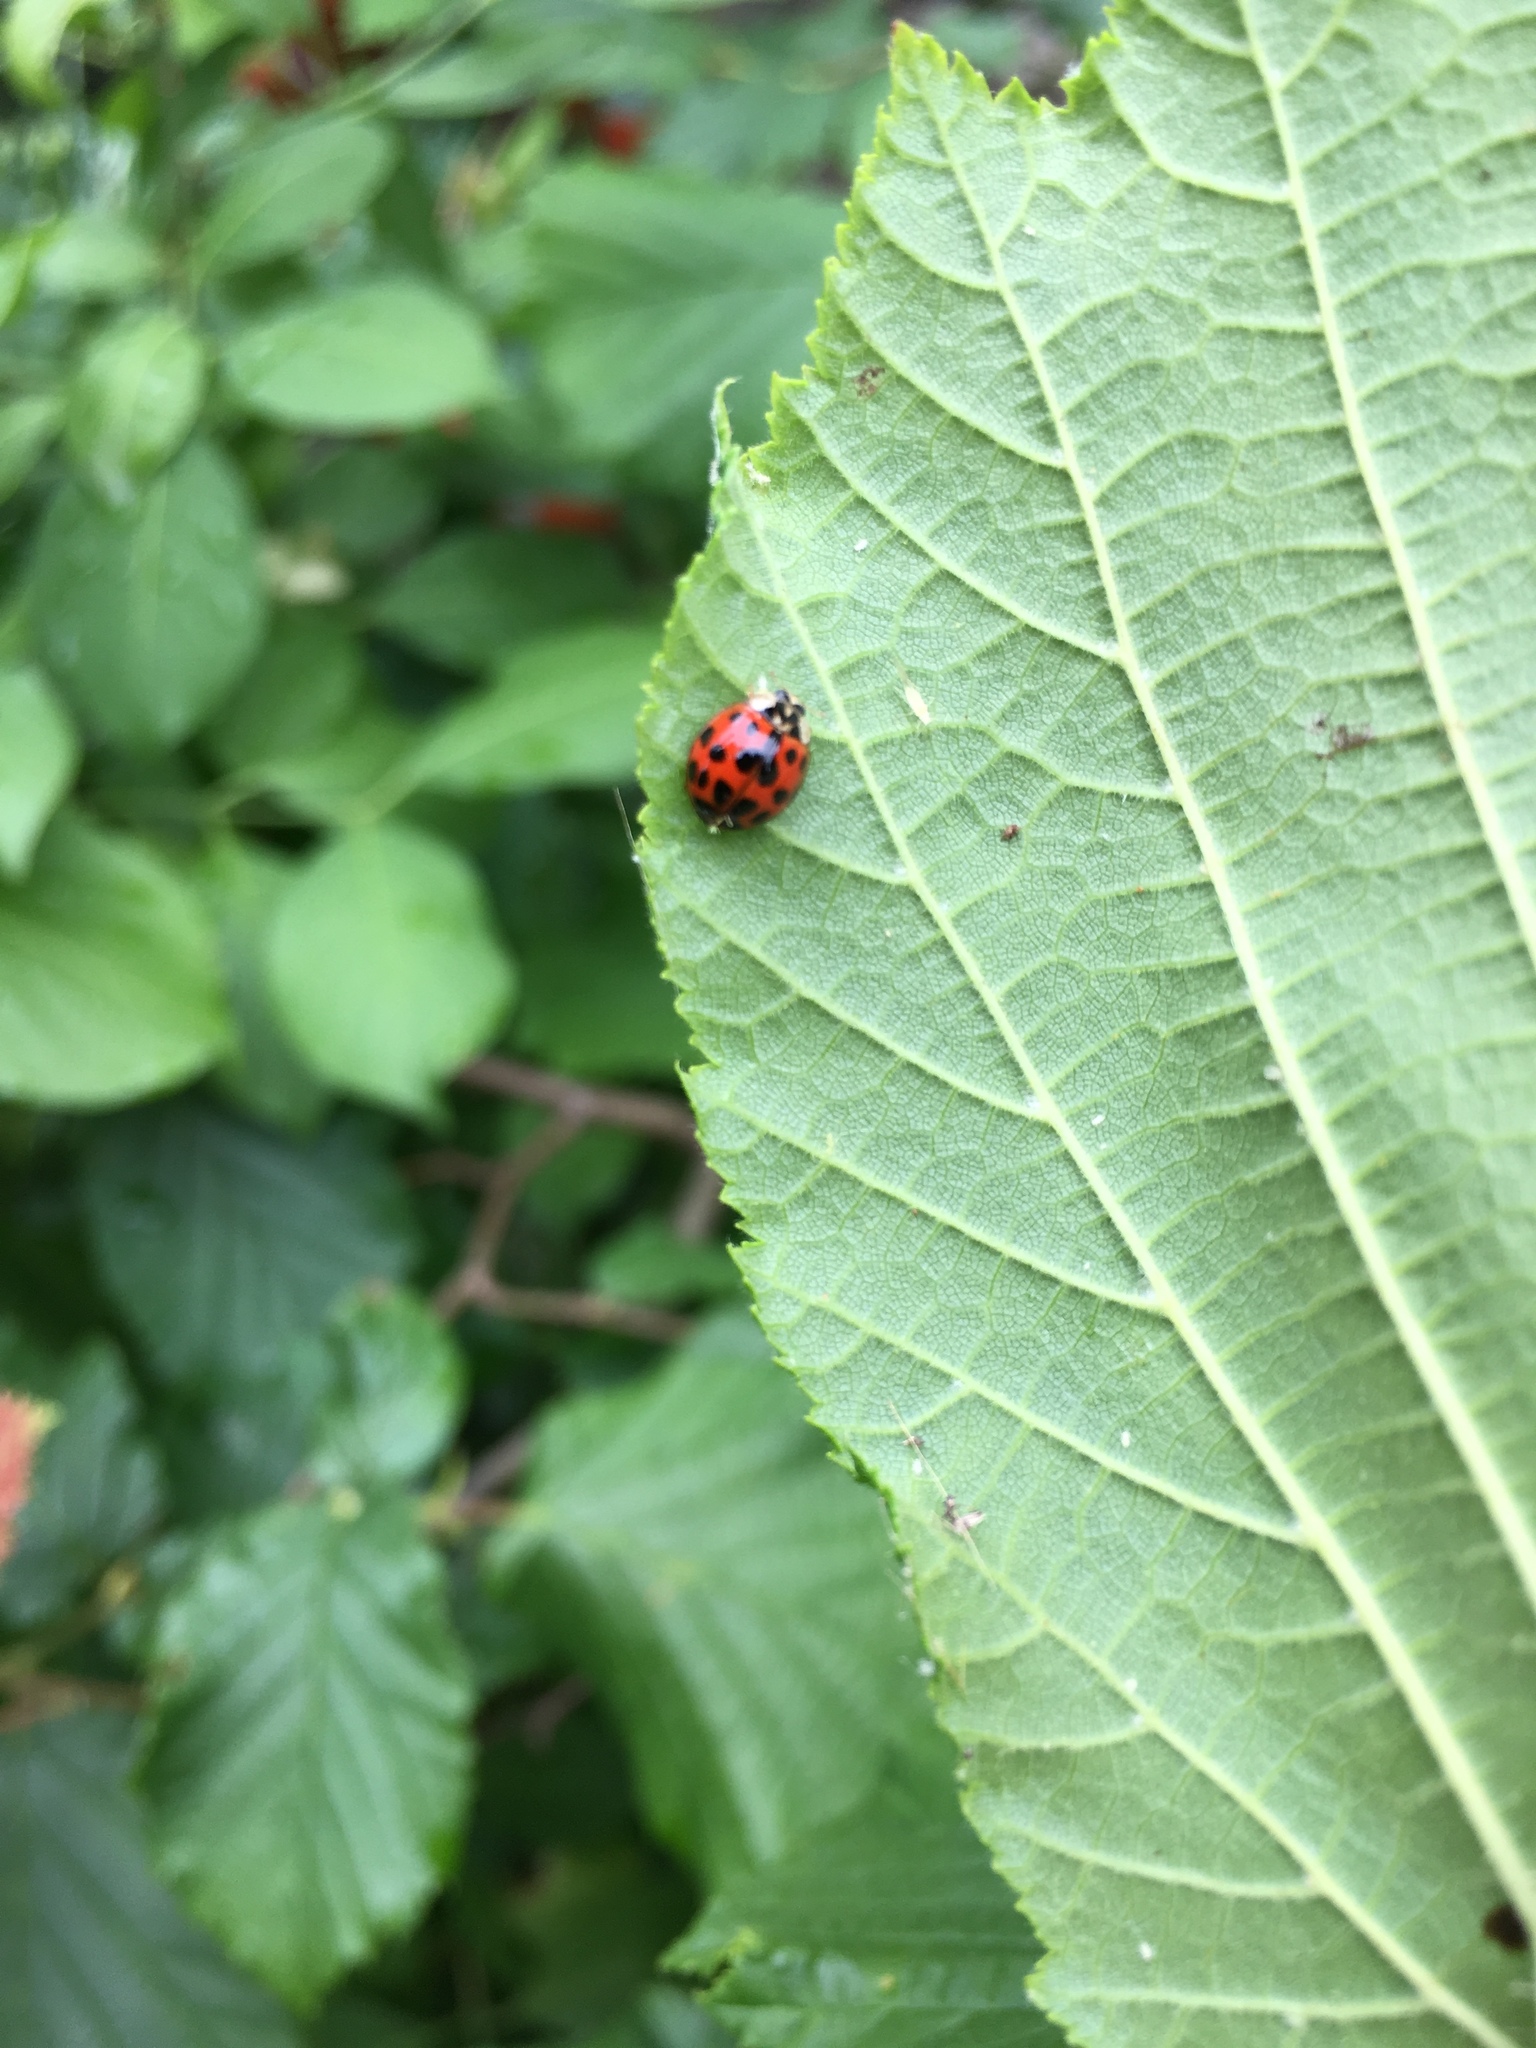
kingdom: Animalia
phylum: Arthropoda
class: Insecta
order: Coleoptera
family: Coccinellidae
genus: Harmonia
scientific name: Harmonia axyridis
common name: Harlequin ladybird
